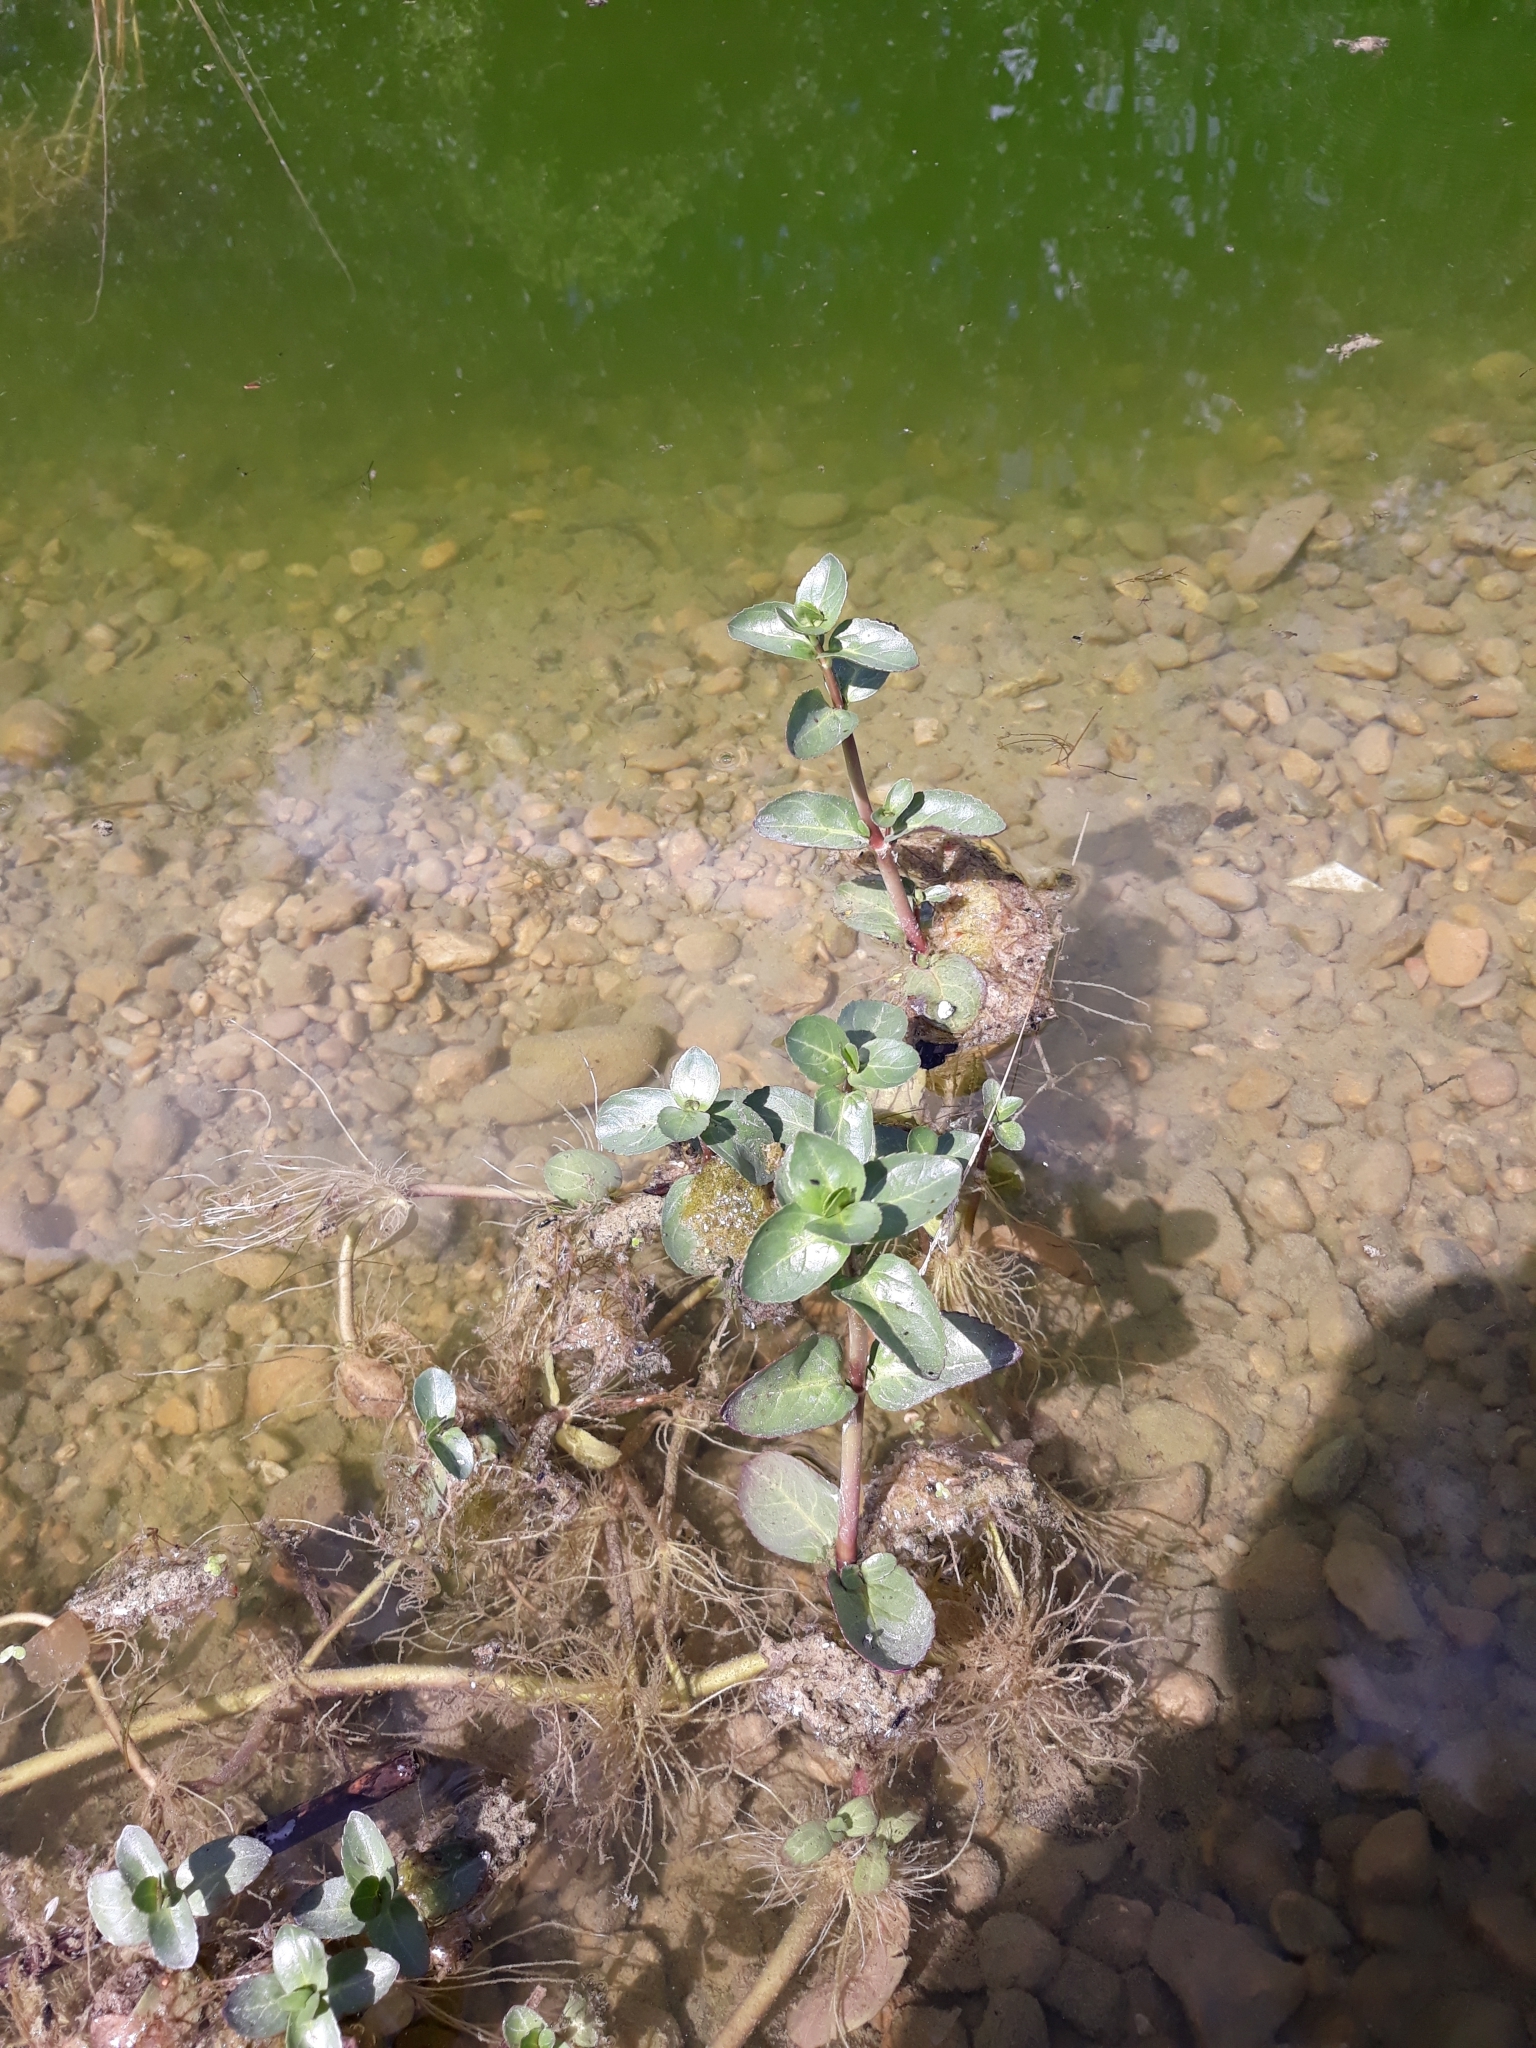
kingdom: Plantae
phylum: Tracheophyta
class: Magnoliopsida
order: Lamiales
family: Plantaginaceae
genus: Veronica
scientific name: Veronica beccabunga
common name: Brooklime
